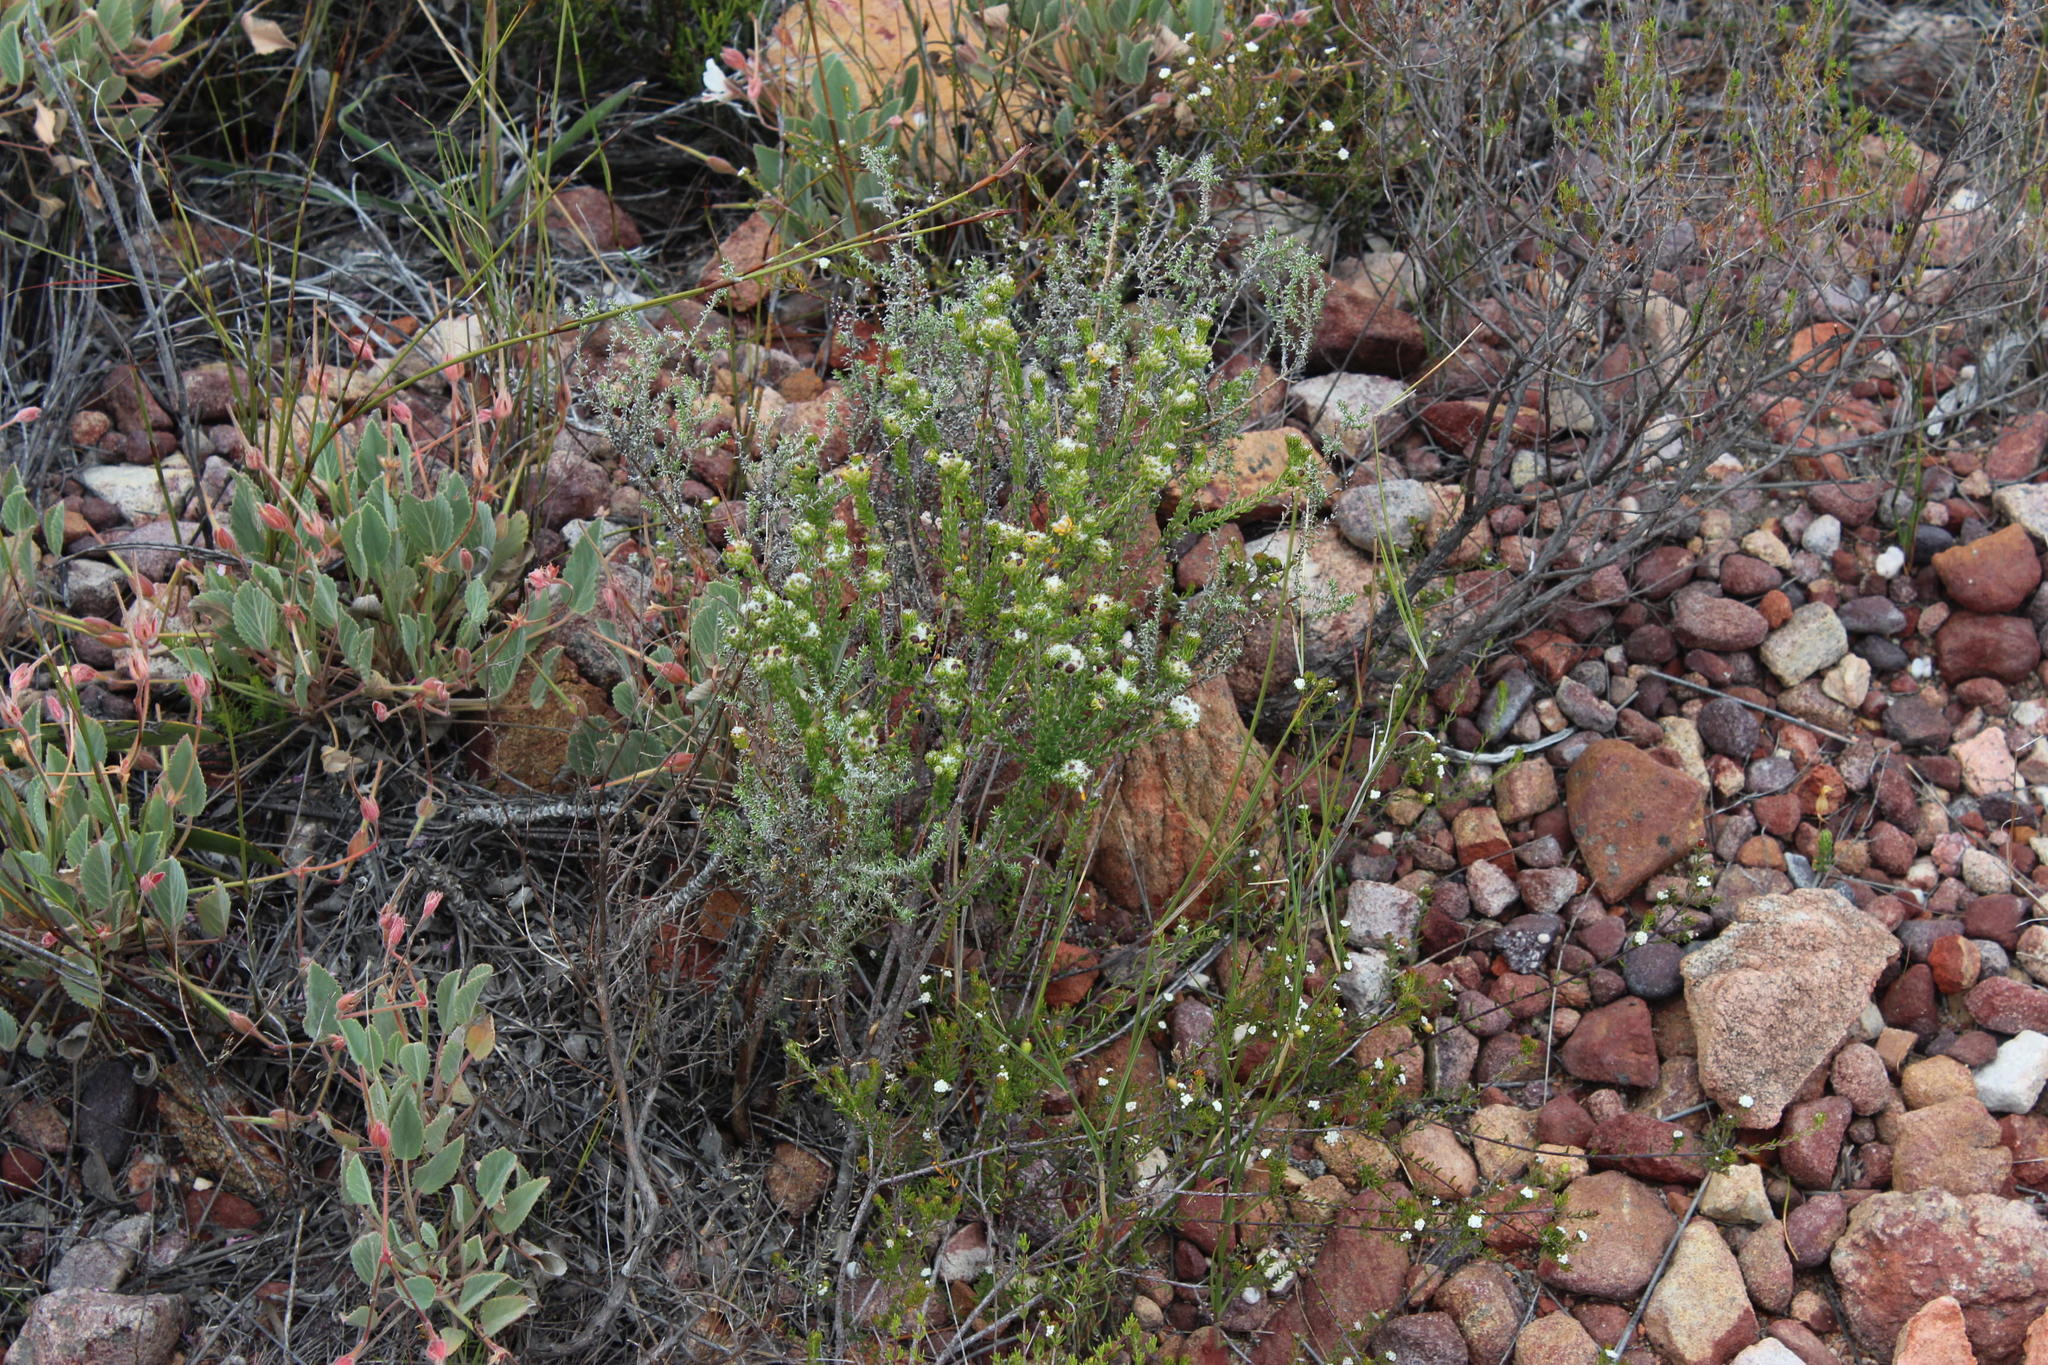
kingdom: Plantae
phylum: Tracheophyta
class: Magnoliopsida
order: Rosales
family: Rhamnaceae
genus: Phylica
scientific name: Phylica stenantha
